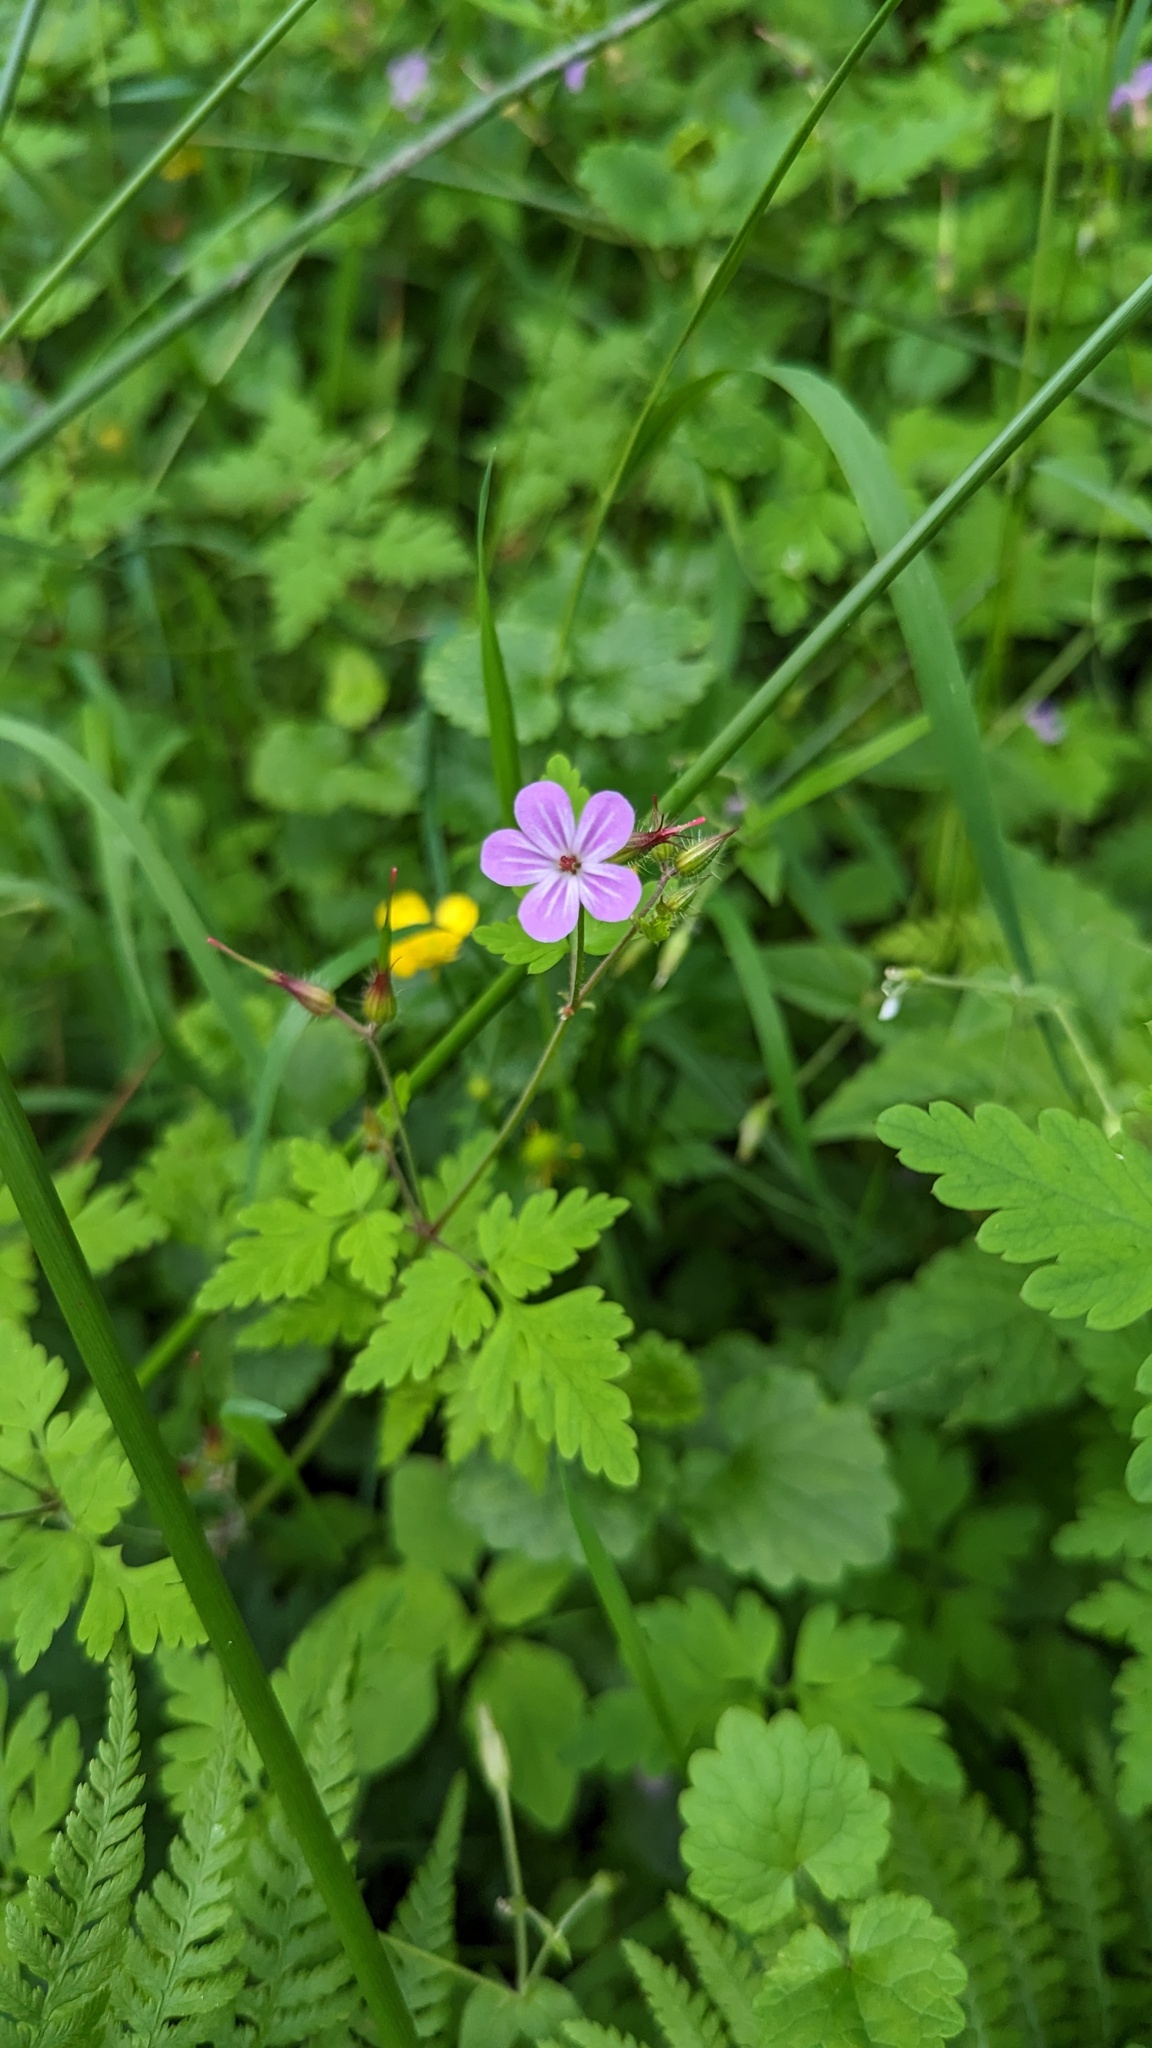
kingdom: Plantae
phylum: Tracheophyta
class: Magnoliopsida
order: Geraniales
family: Geraniaceae
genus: Geranium
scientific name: Geranium robertianum
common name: Herb-robert
